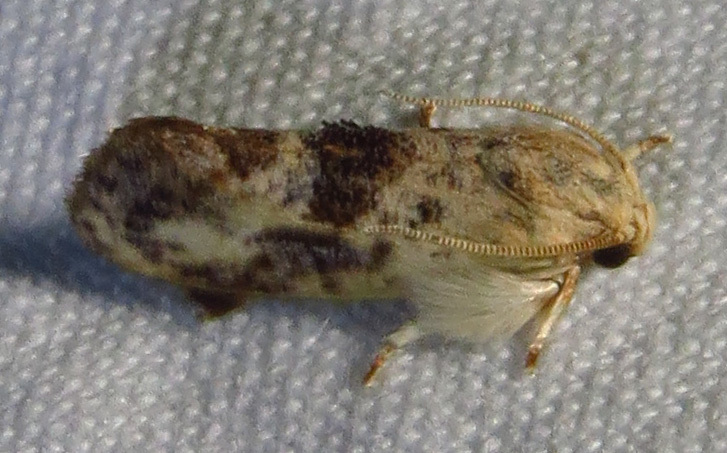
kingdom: Animalia
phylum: Arthropoda
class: Insecta
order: Lepidoptera
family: Tineidae
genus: Acrolophus
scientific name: Acrolophus mycetophagus
